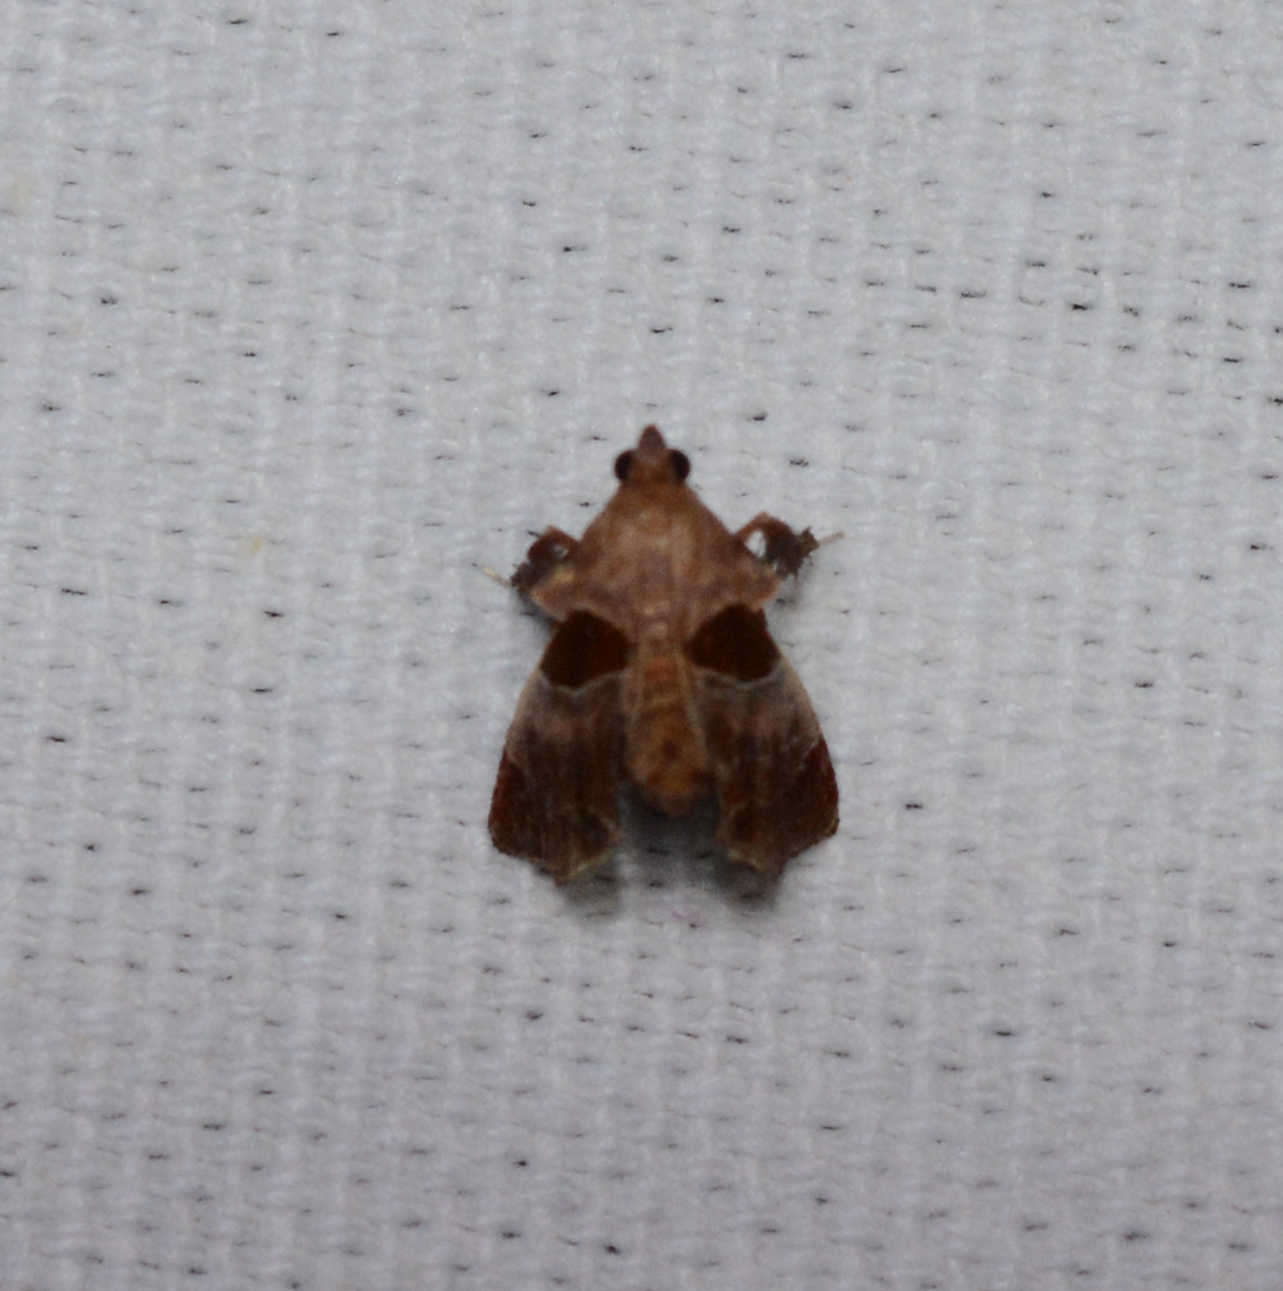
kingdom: Animalia
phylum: Arthropoda
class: Insecta
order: Lepidoptera
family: Pyralidae
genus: Tosale
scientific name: Tosale oviplagalis
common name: Dimorphic tosale moth
